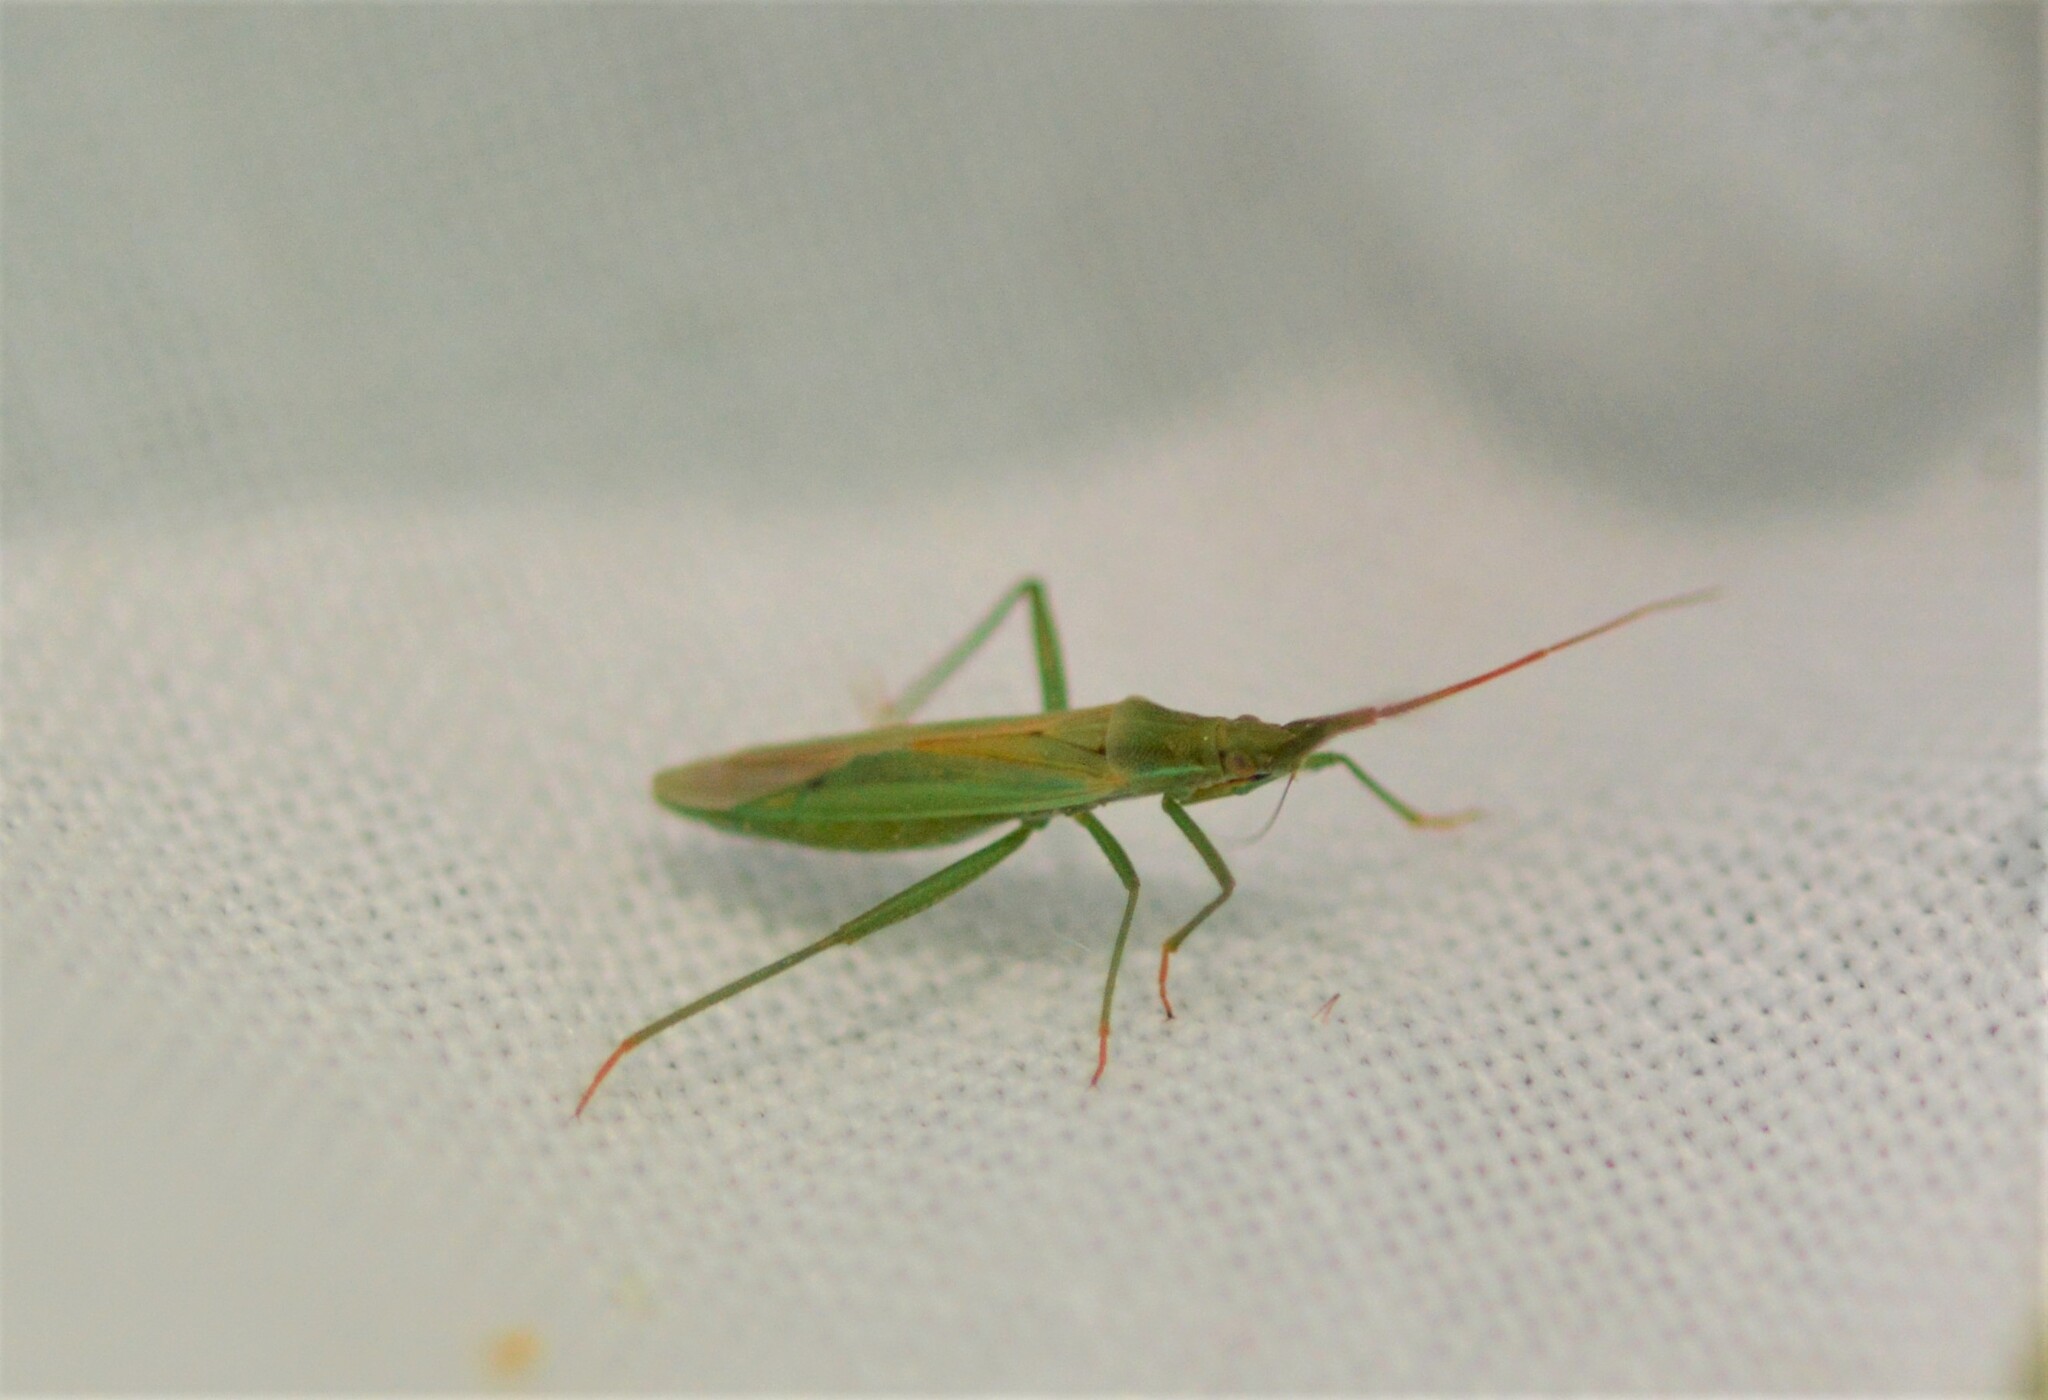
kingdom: Animalia
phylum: Arthropoda
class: Insecta
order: Hemiptera
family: Miridae
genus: Stenodema
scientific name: Stenodema laevigata
